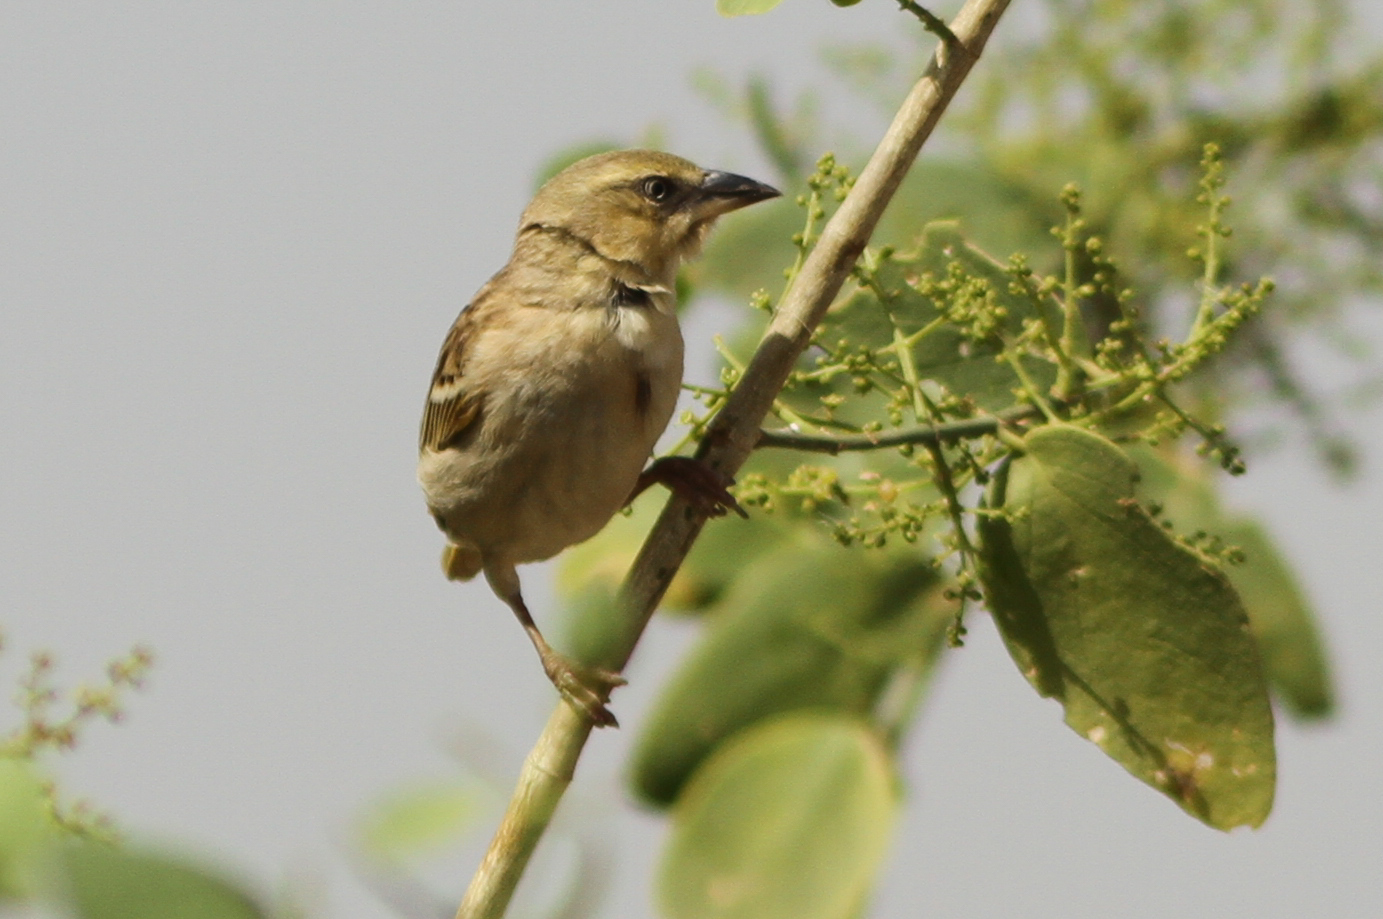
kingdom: Animalia
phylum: Chordata
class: Aves
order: Passeriformes
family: Ploceidae
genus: Ploceus
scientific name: Ploceus melanocephalus
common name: Black-headed weaver
